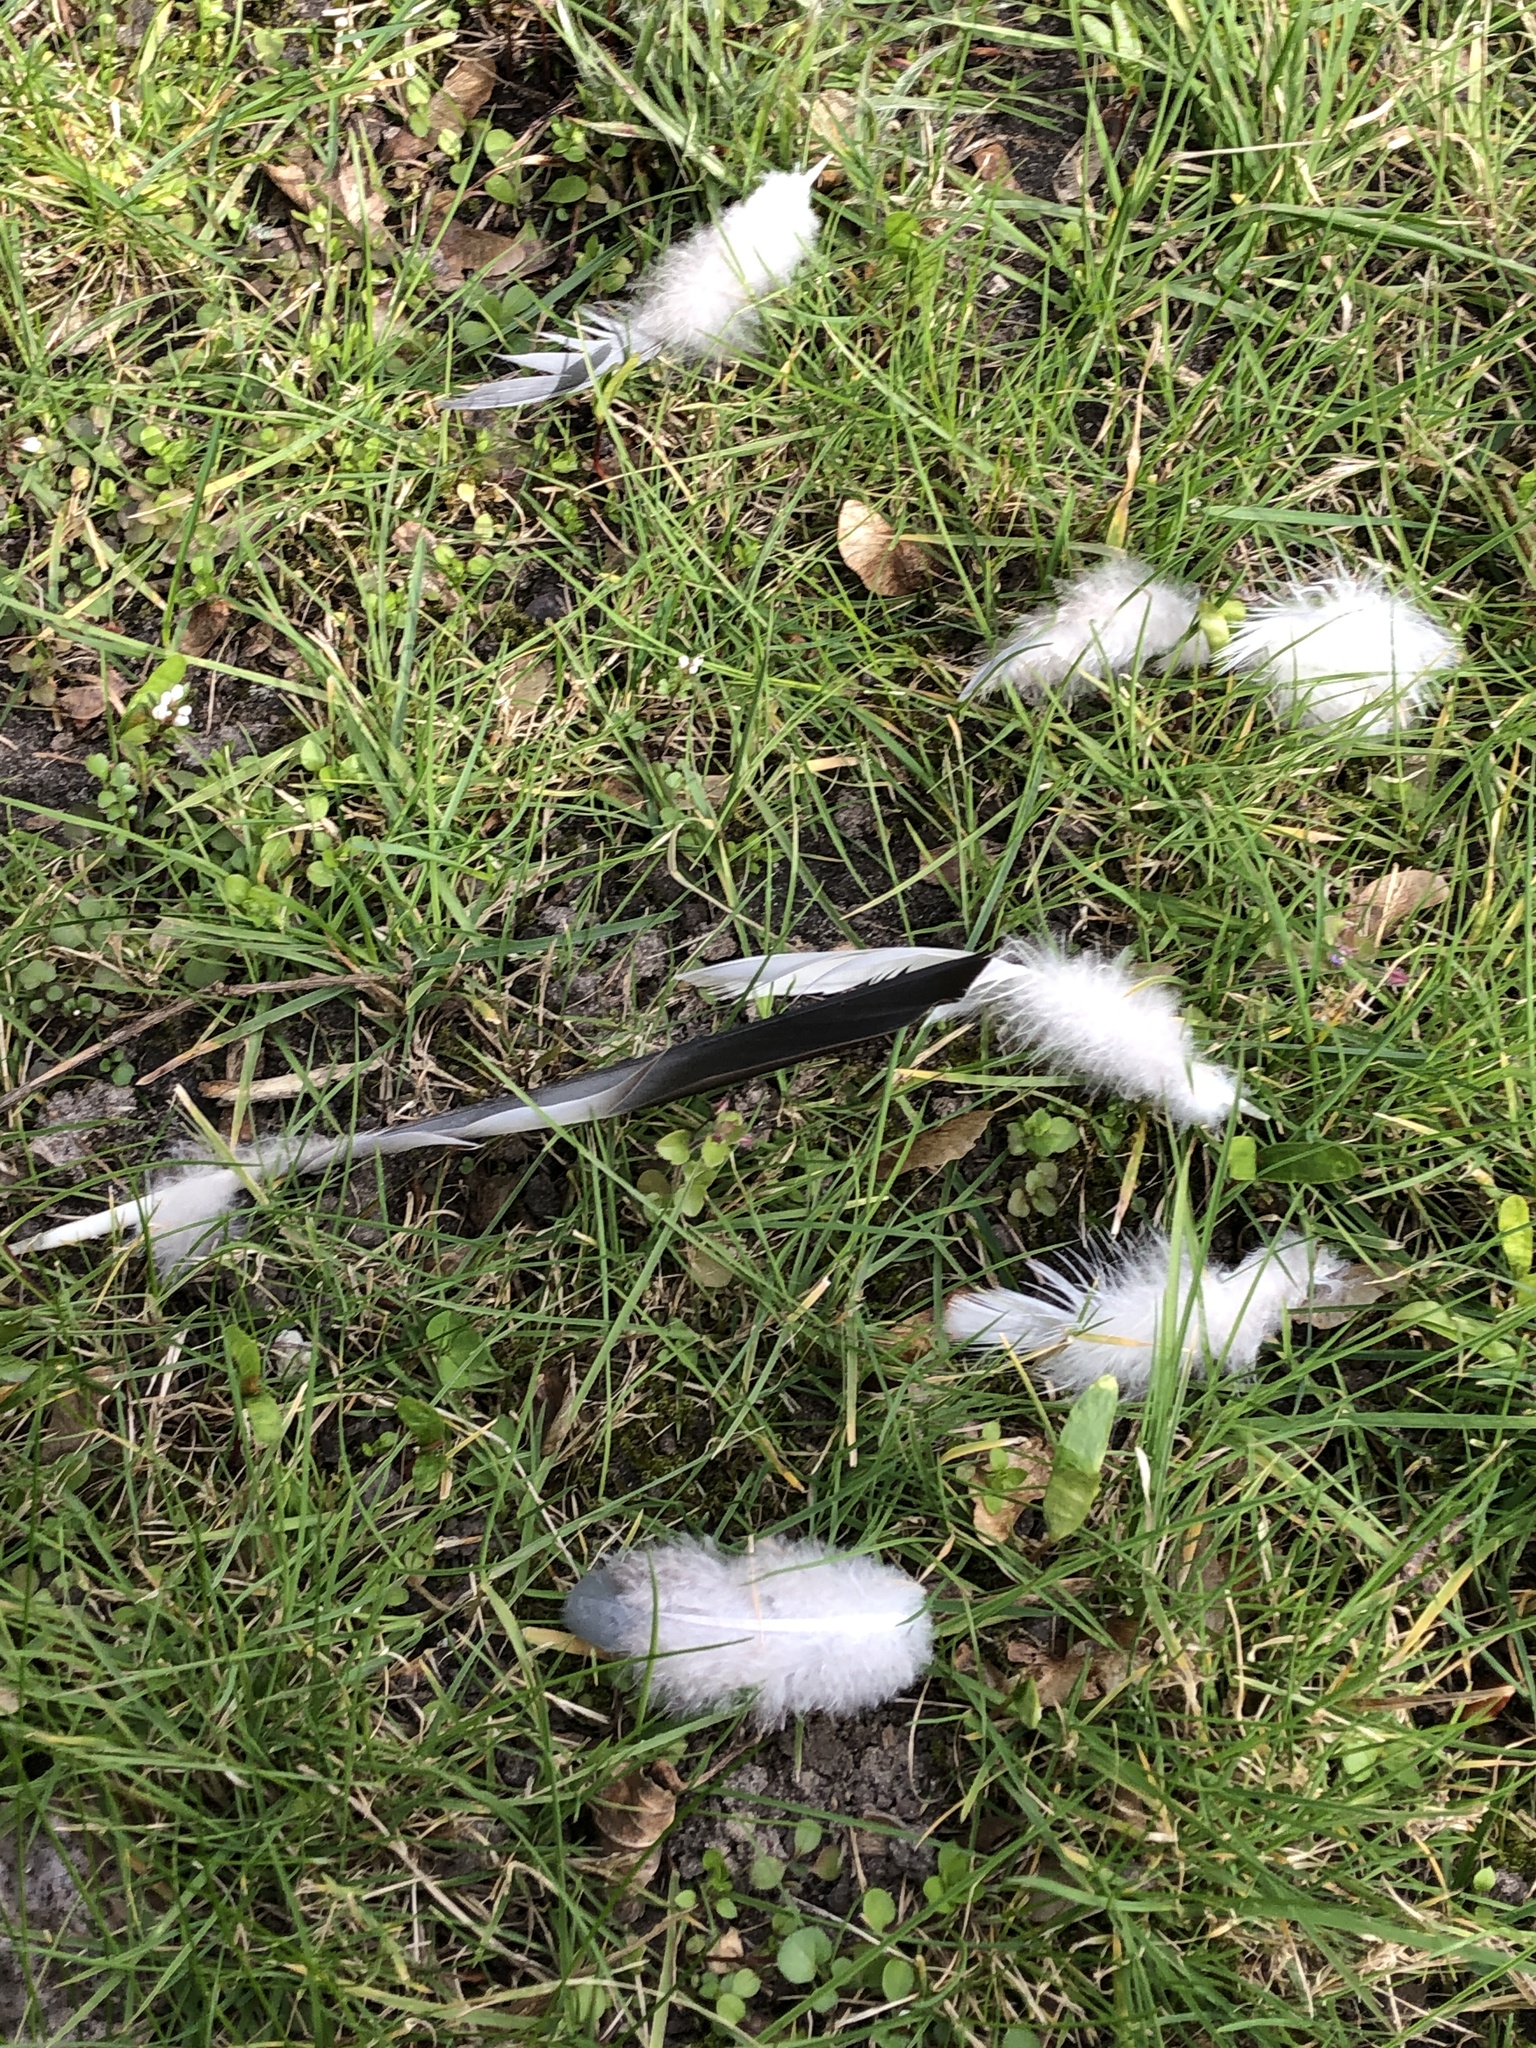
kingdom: Animalia
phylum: Chordata
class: Aves
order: Columbiformes
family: Columbidae
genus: Columba
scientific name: Columba palumbus
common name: Common wood pigeon
